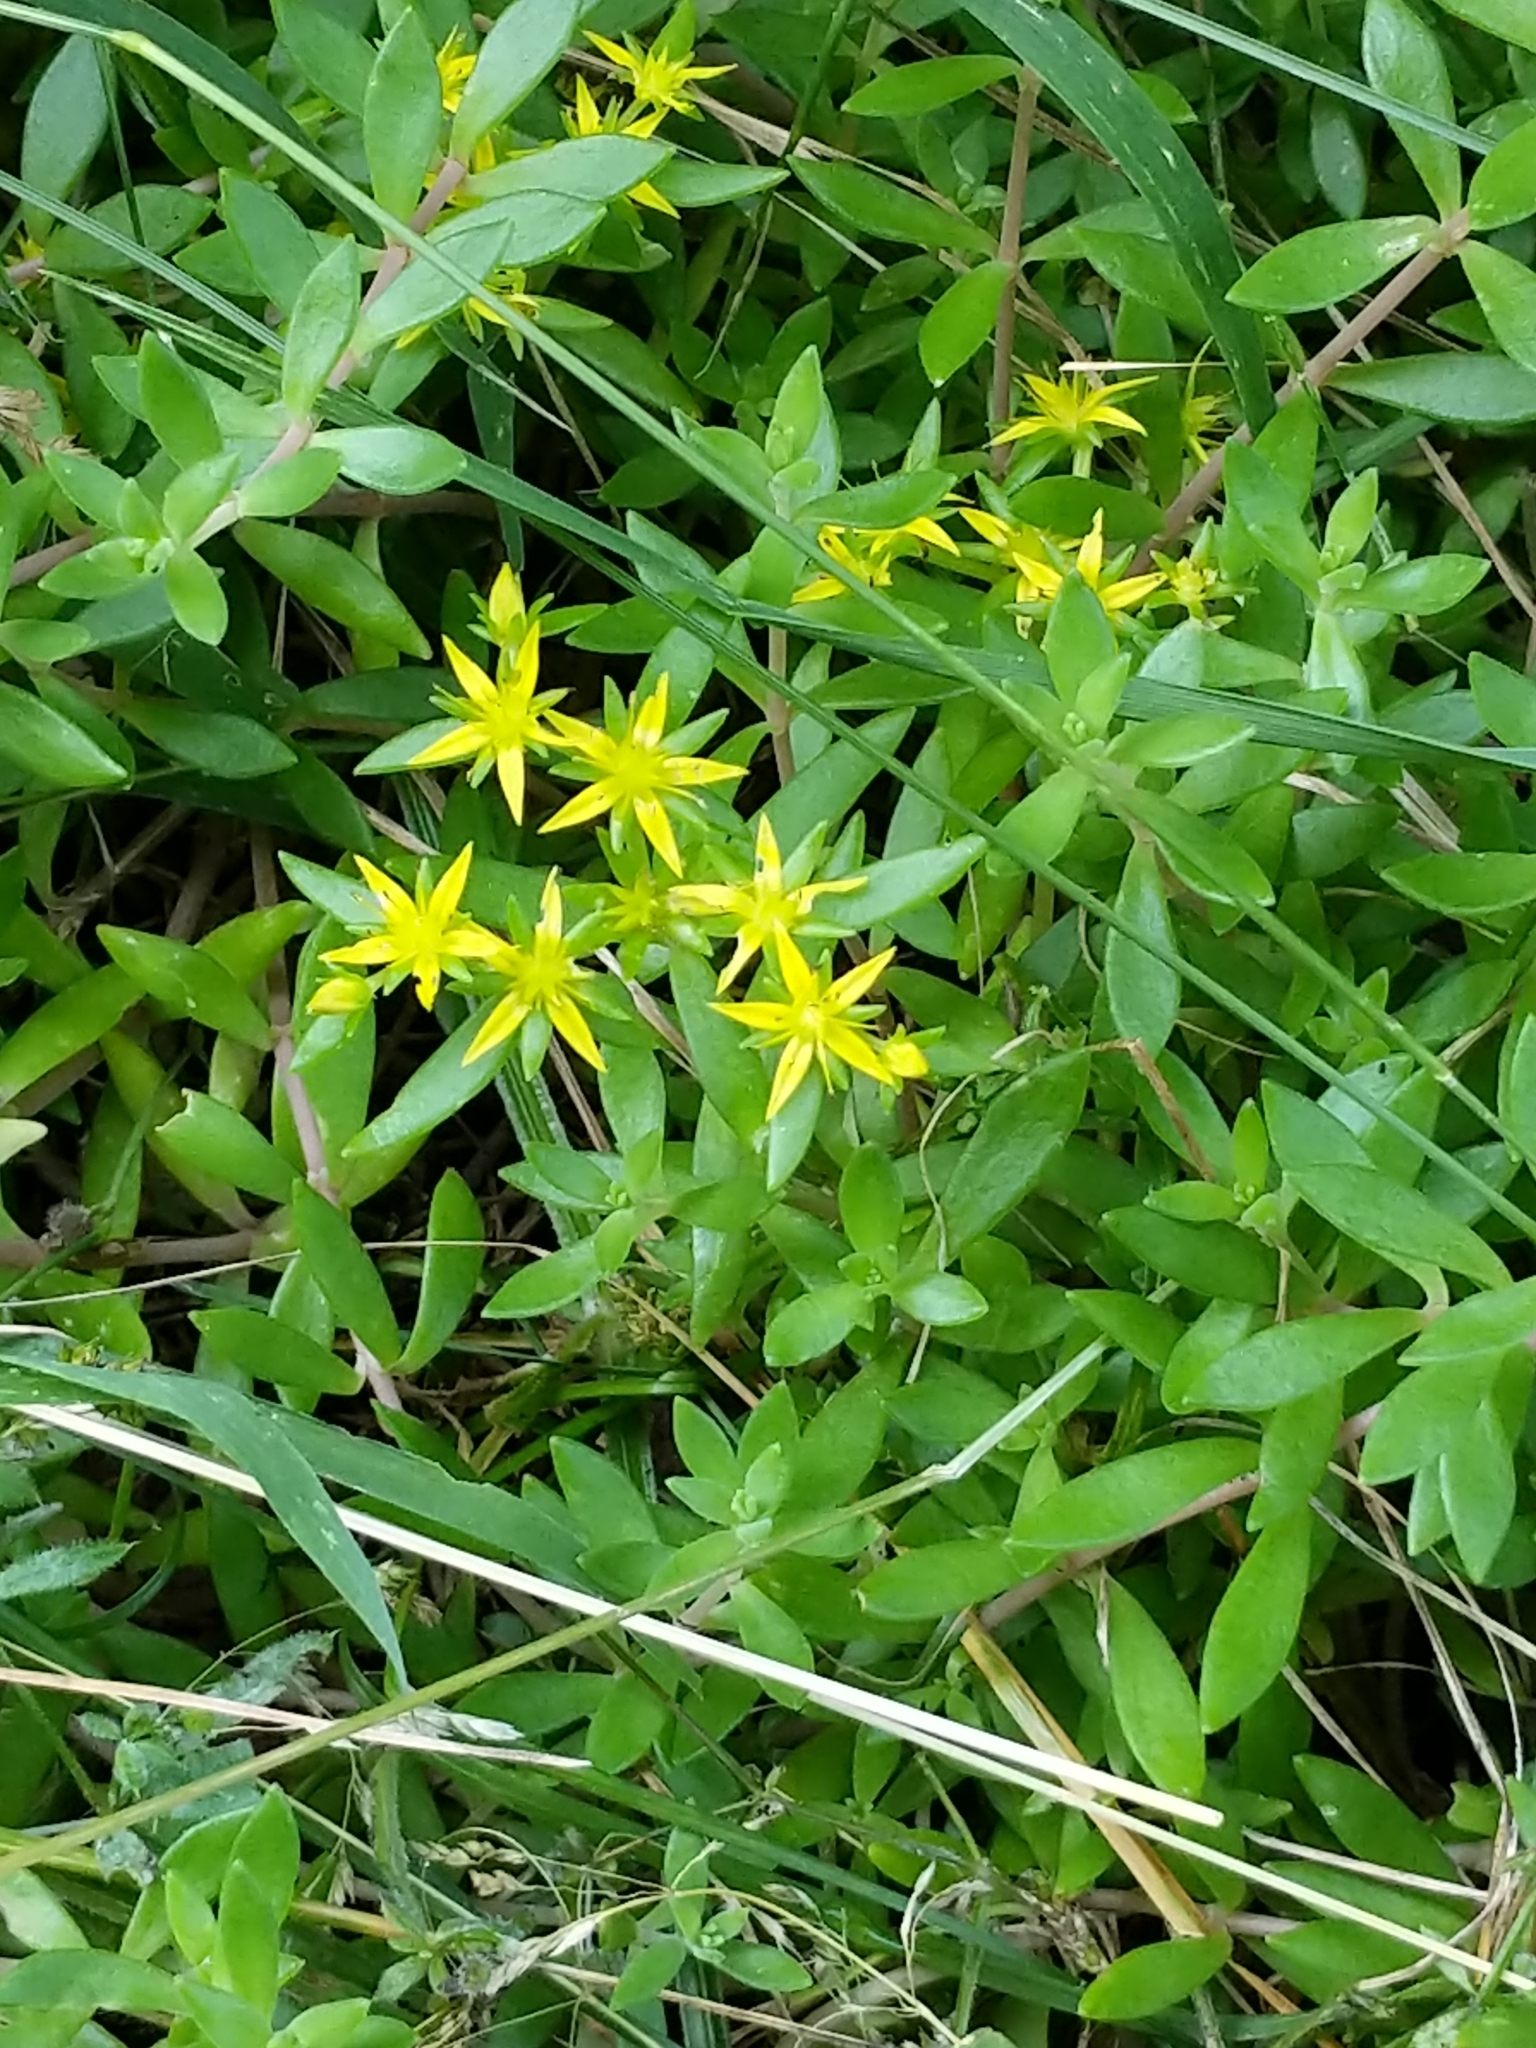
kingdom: Plantae
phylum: Tracheophyta
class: Magnoliopsida
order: Saxifragales
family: Crassulaceae
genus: Sedum
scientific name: Sedum sarmentosum
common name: Stringy stonecrop
